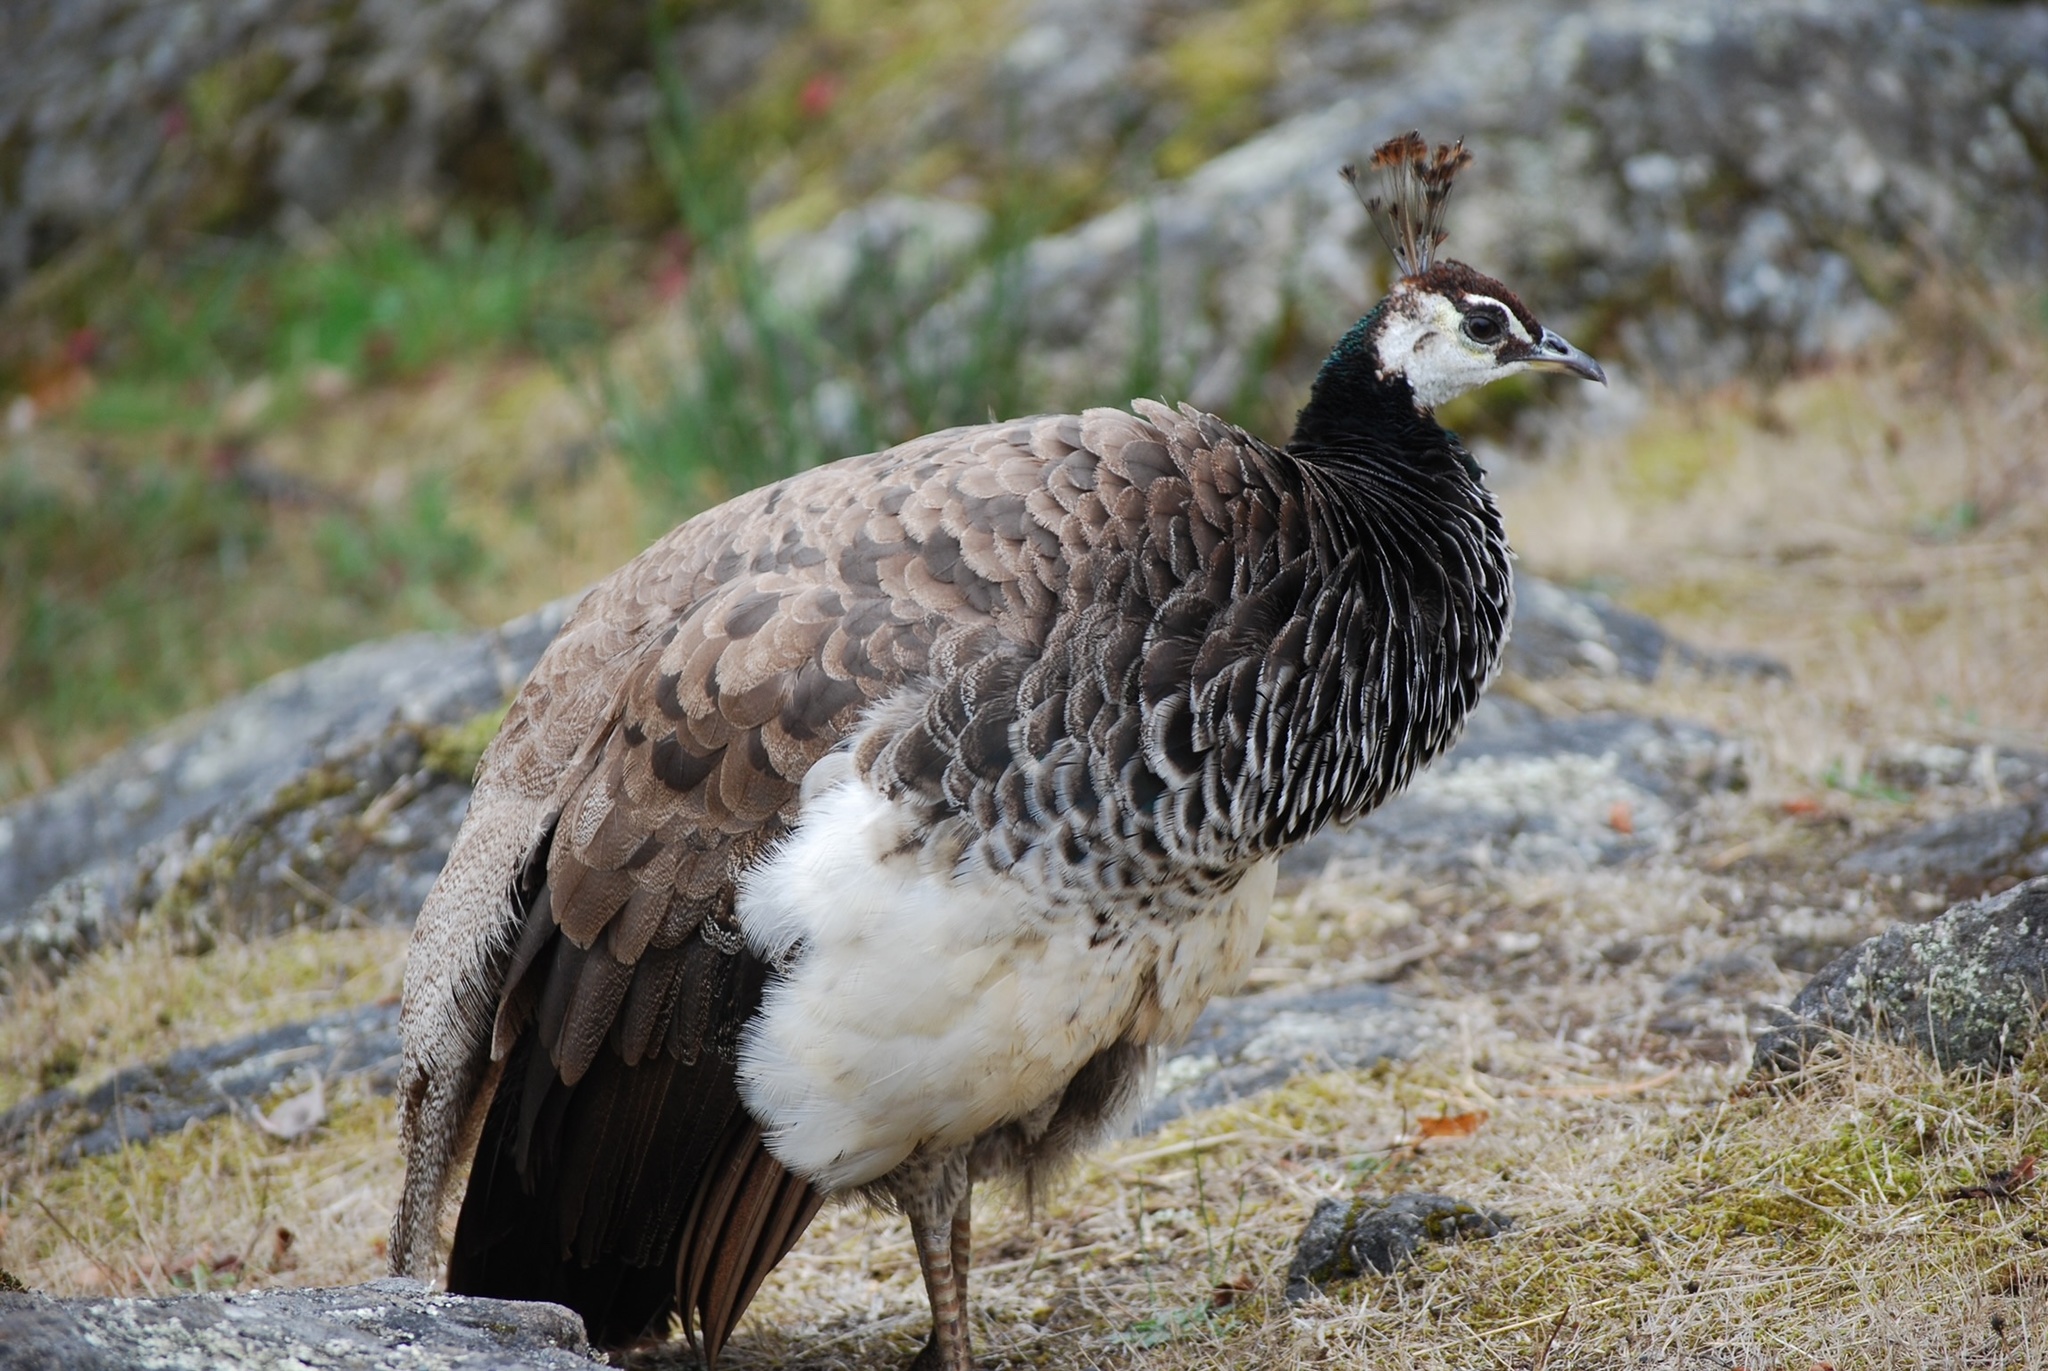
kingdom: Animalia
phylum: Chordata
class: Aves
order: Galliformes
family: Phasianidae
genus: Pavo
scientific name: Pavo cristatus
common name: Indian peafowl
